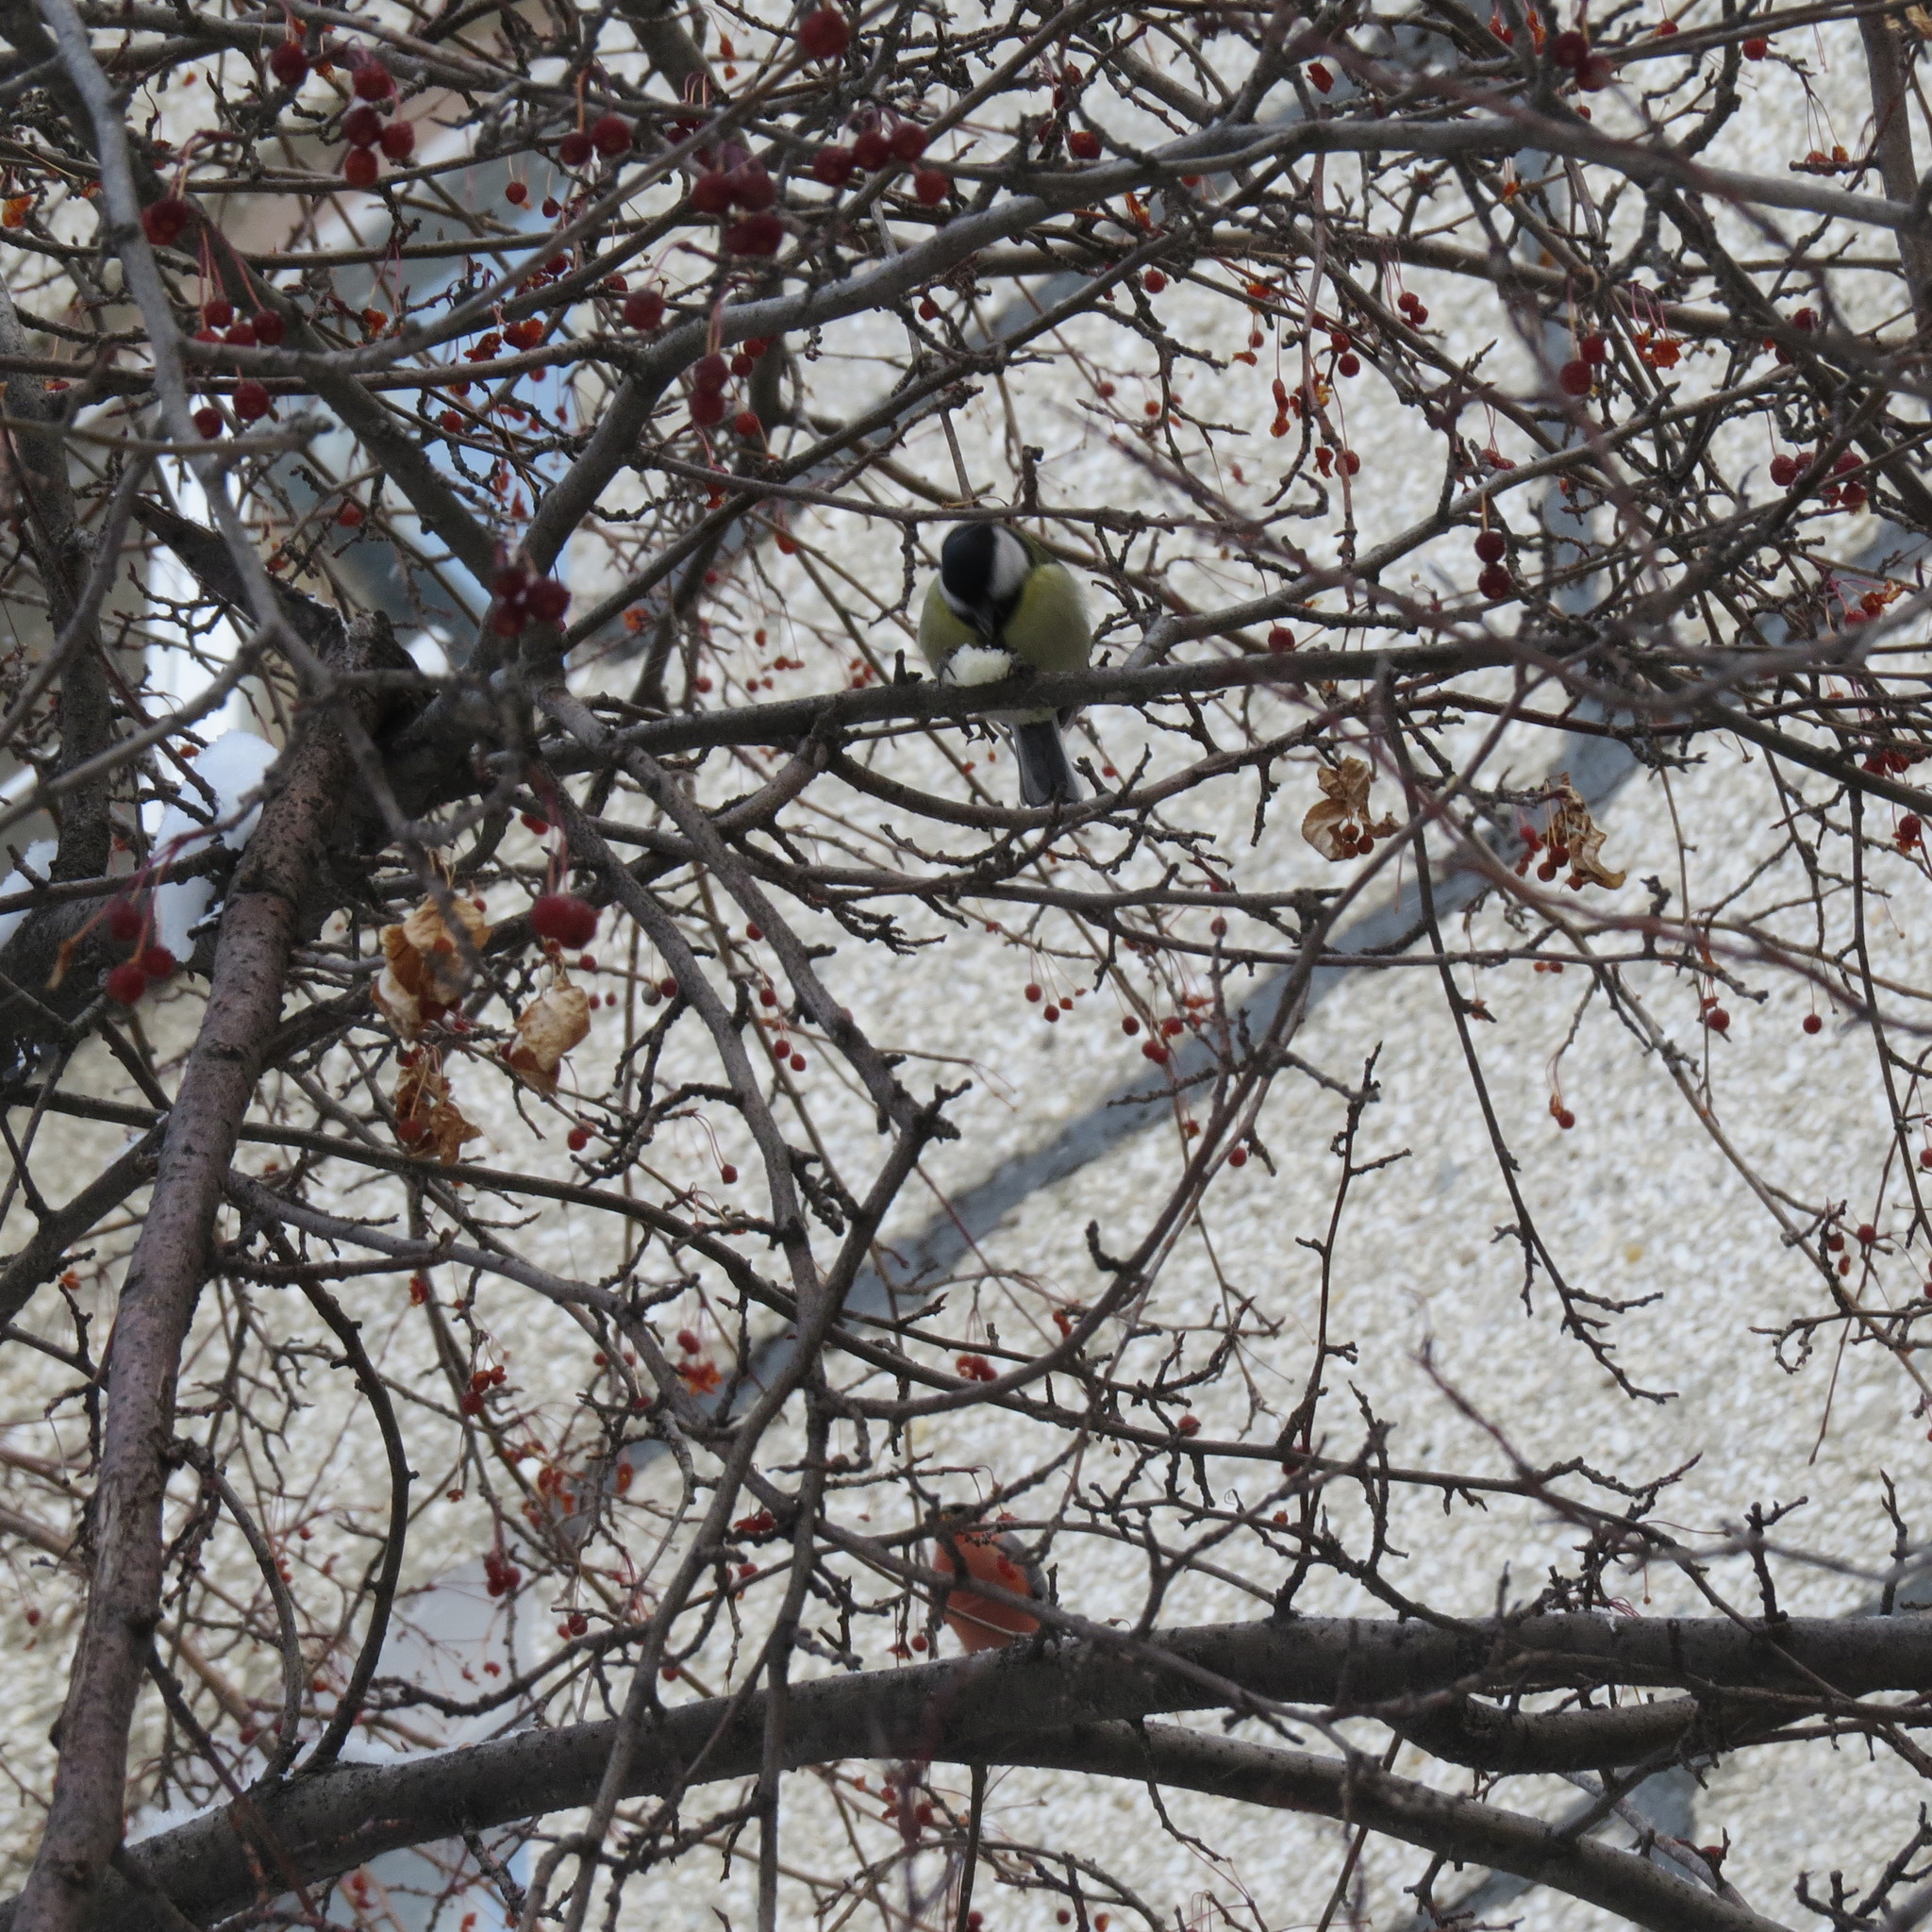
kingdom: Animalia
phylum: Chordata
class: Aves
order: Passeriformes
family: Paridae
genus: Parus
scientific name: Parus major
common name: Great tit
